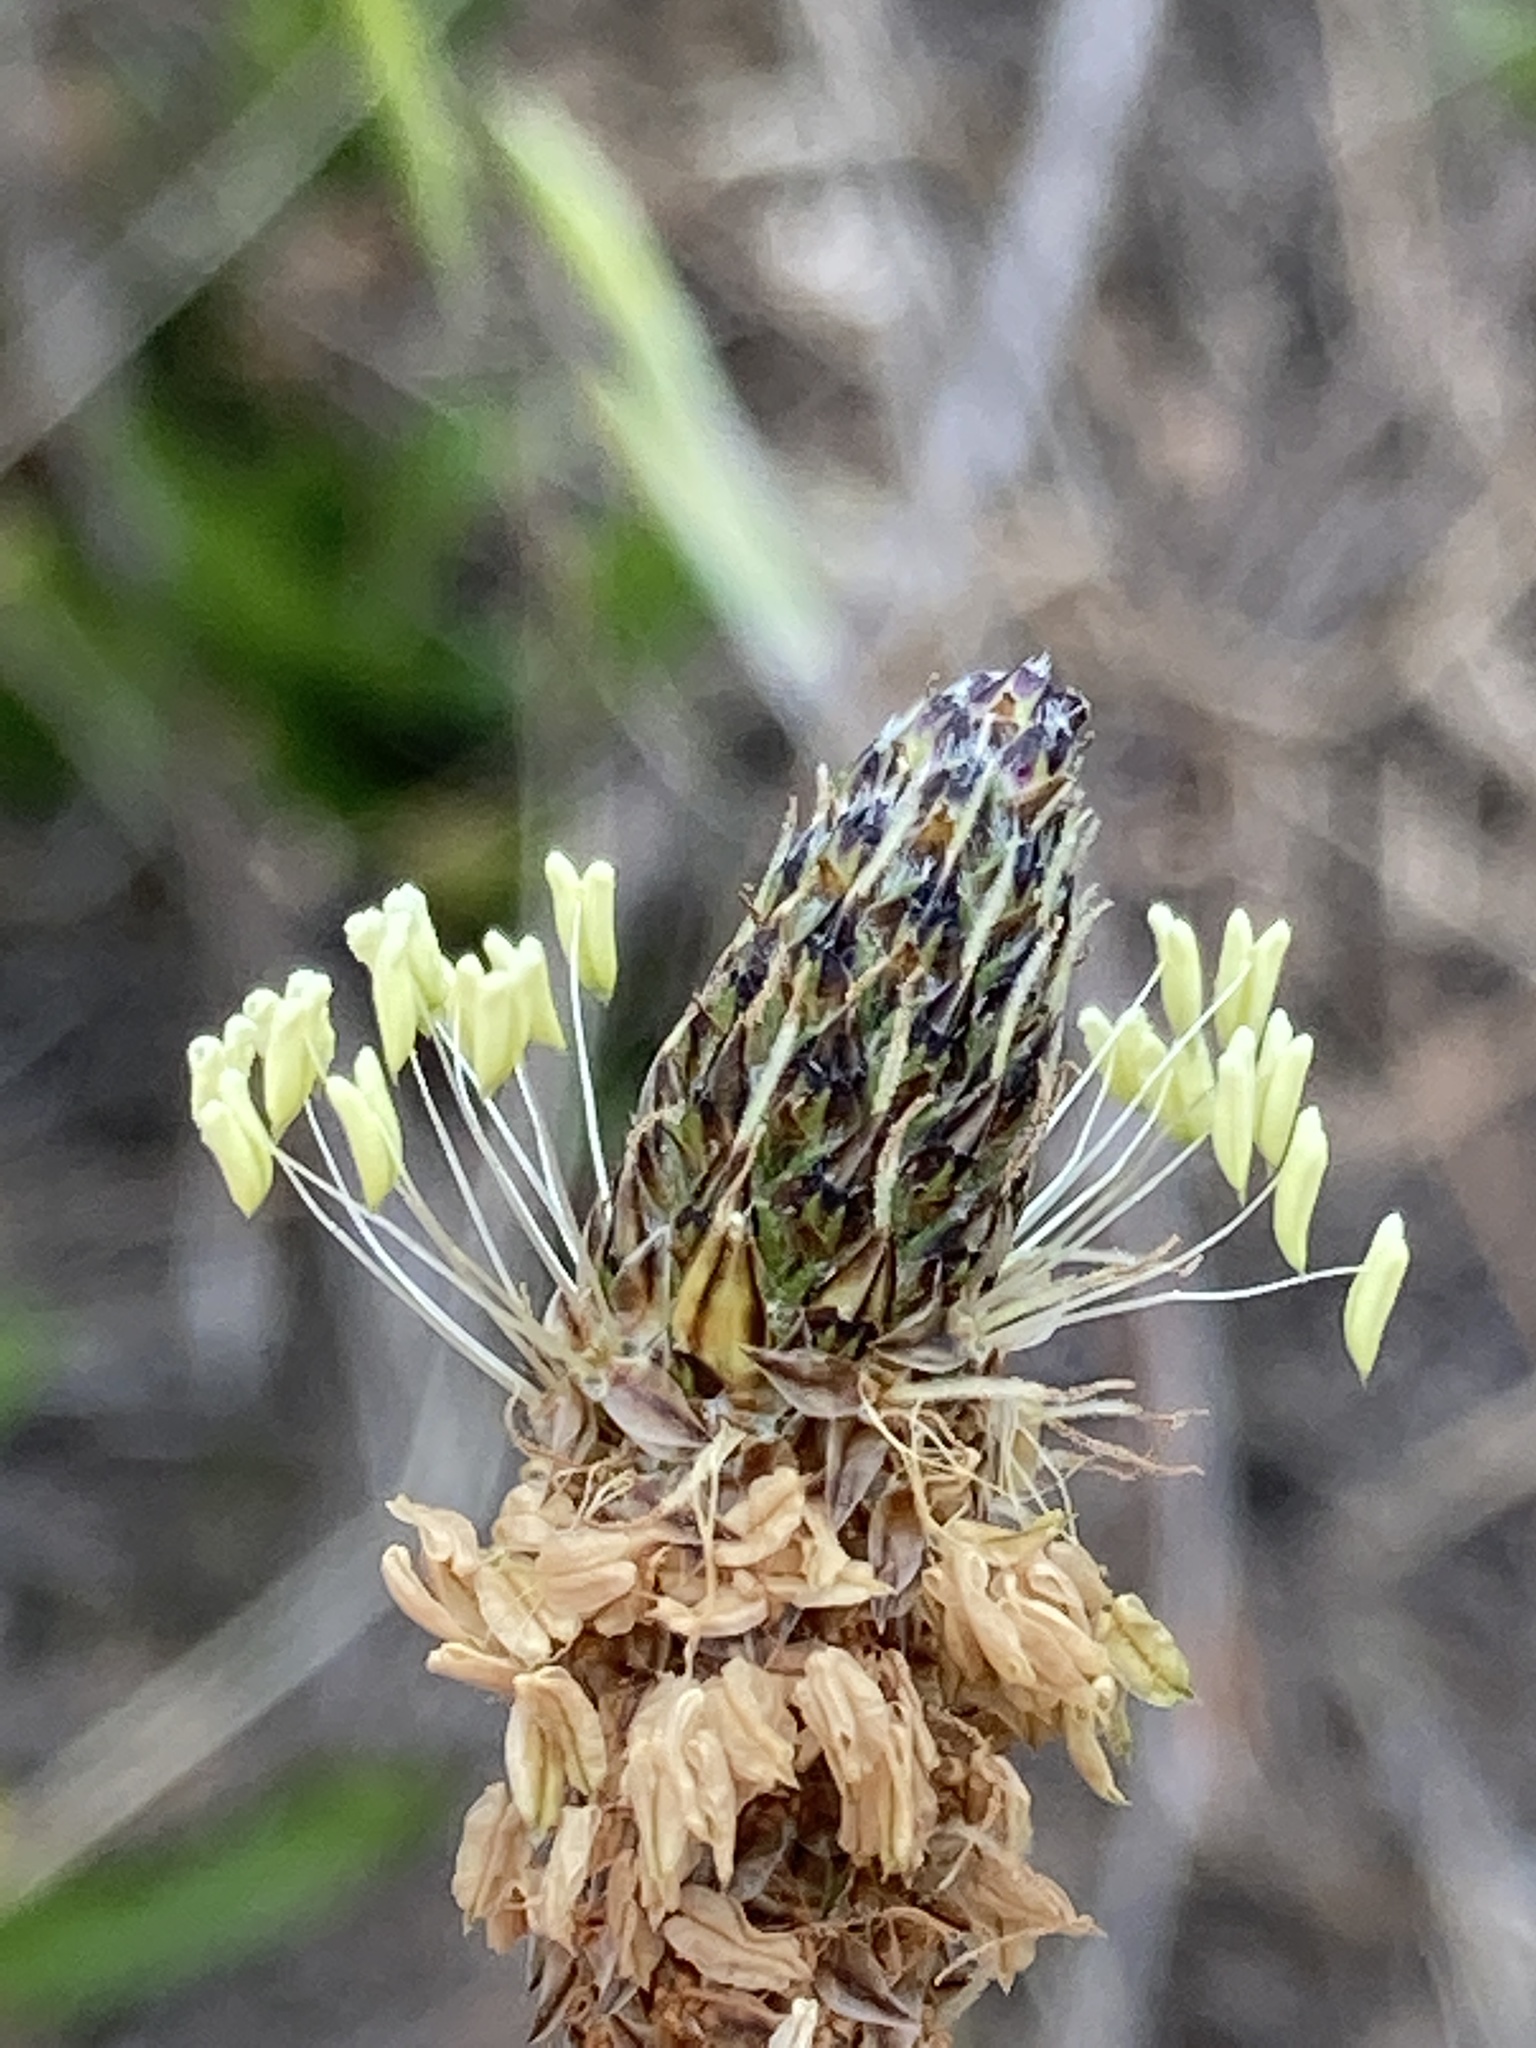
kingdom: Plantae
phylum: Tracheophyta
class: Magnoliopsida
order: Lamiales
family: Plantaginaceae
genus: Plantago
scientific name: Plantago lanceolata
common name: Ribwort plantain
